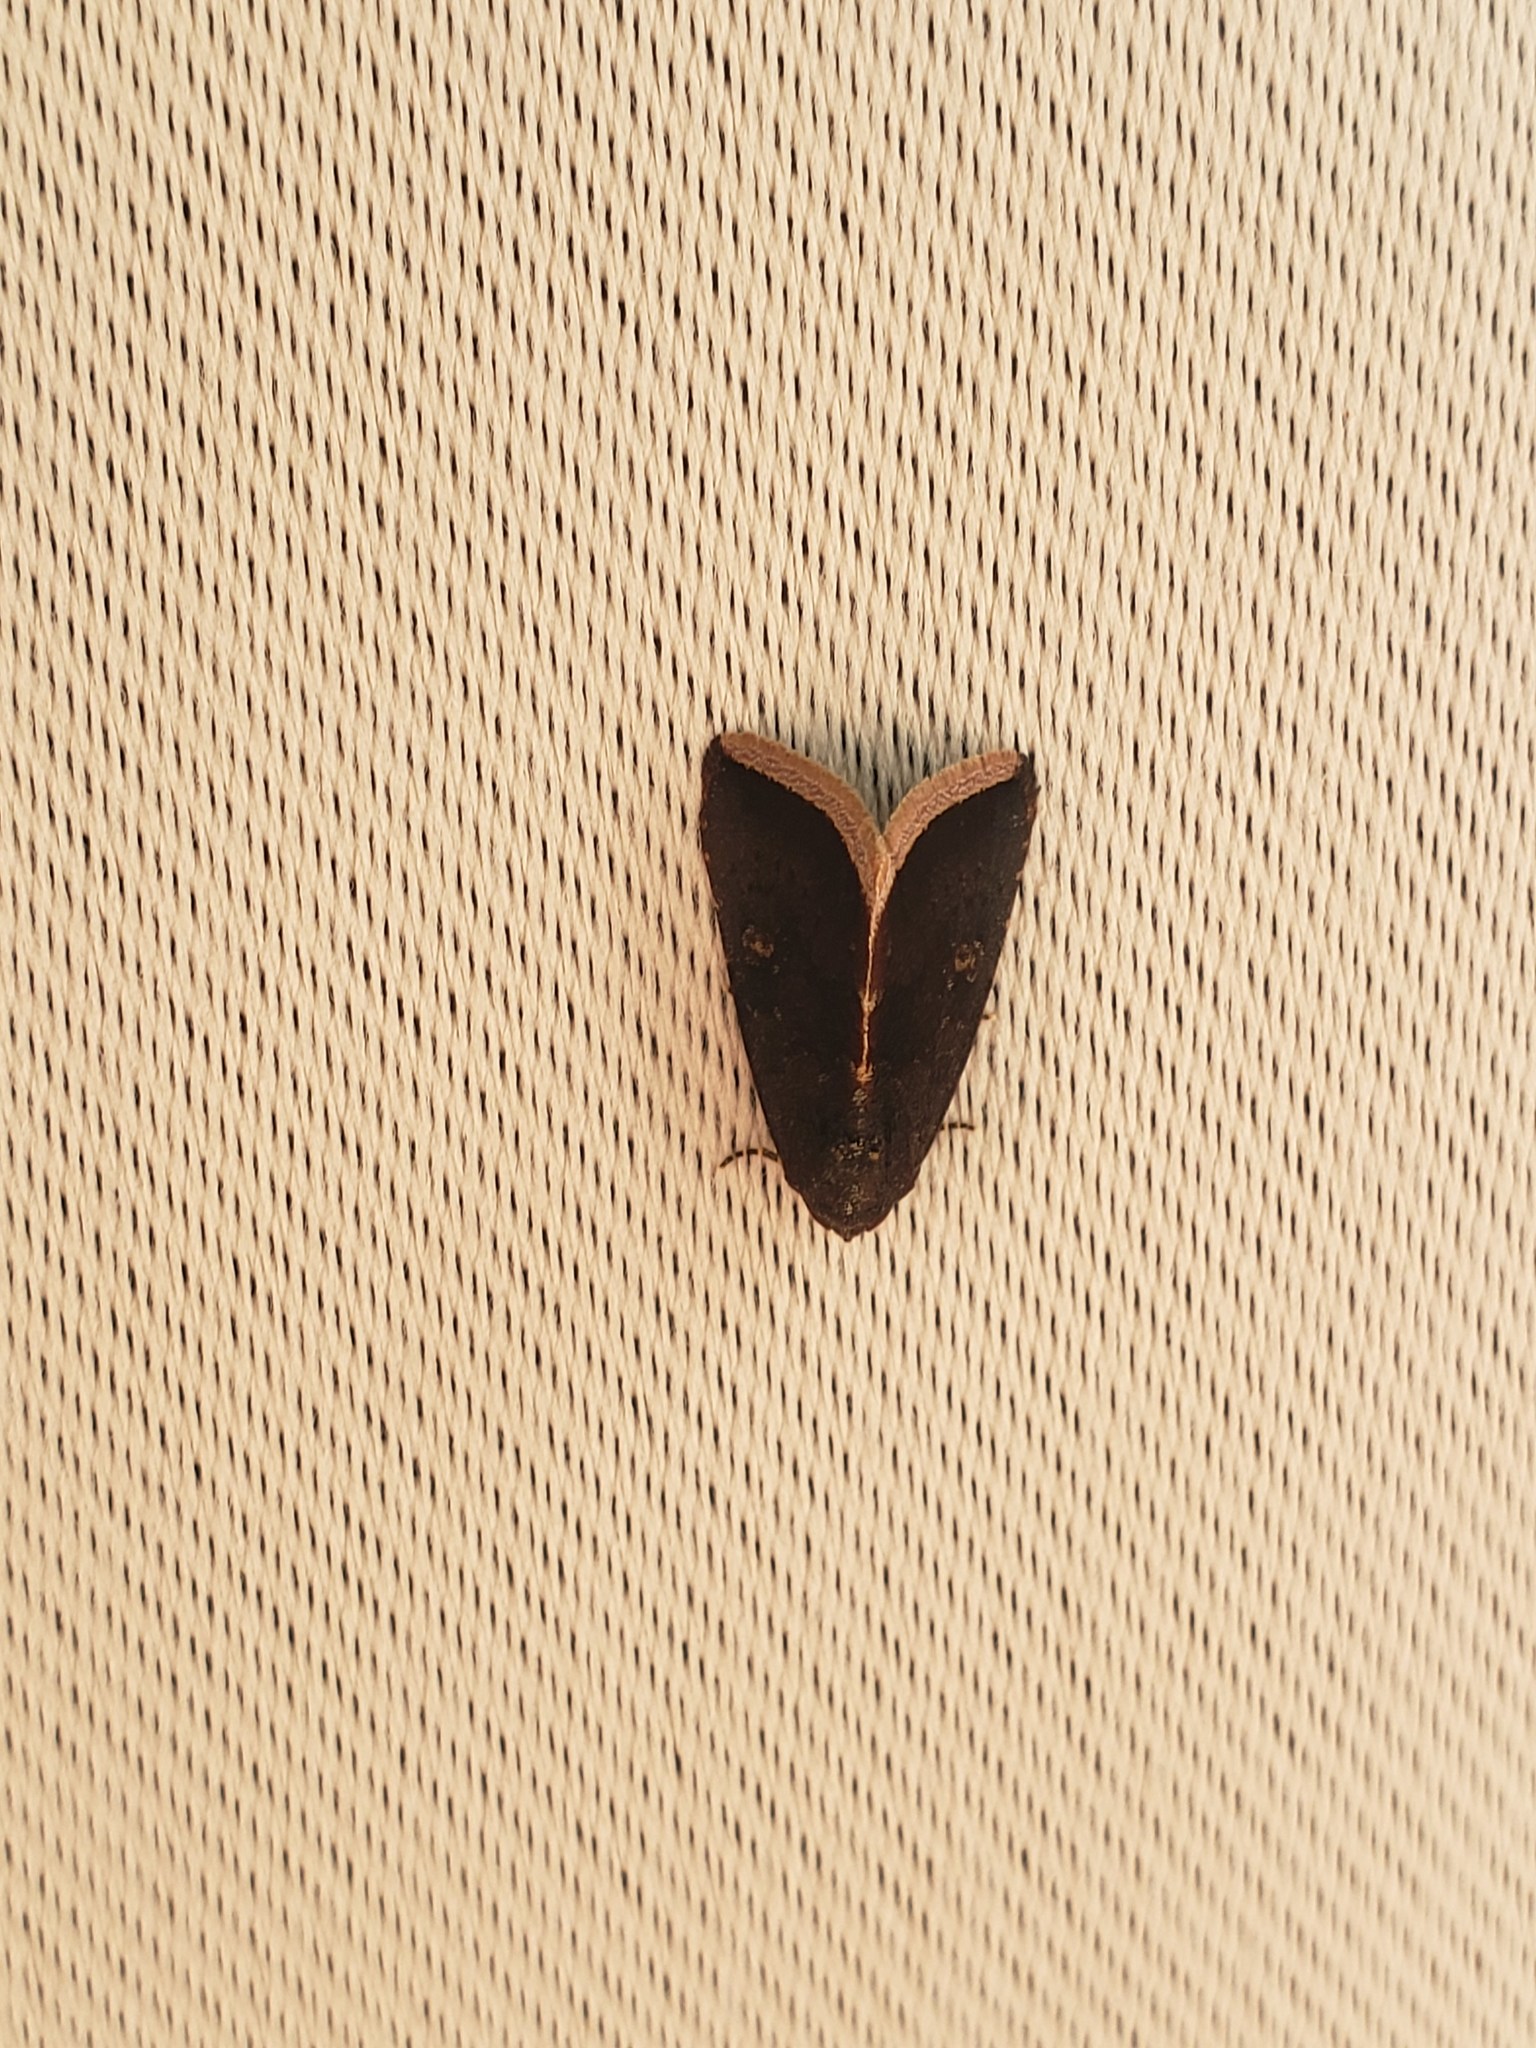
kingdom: Animalia
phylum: Arthropoda
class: Insecta
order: Lepidoptera
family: Noctuidae
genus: Micrathetis
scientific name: Micrathetis canifimbria
